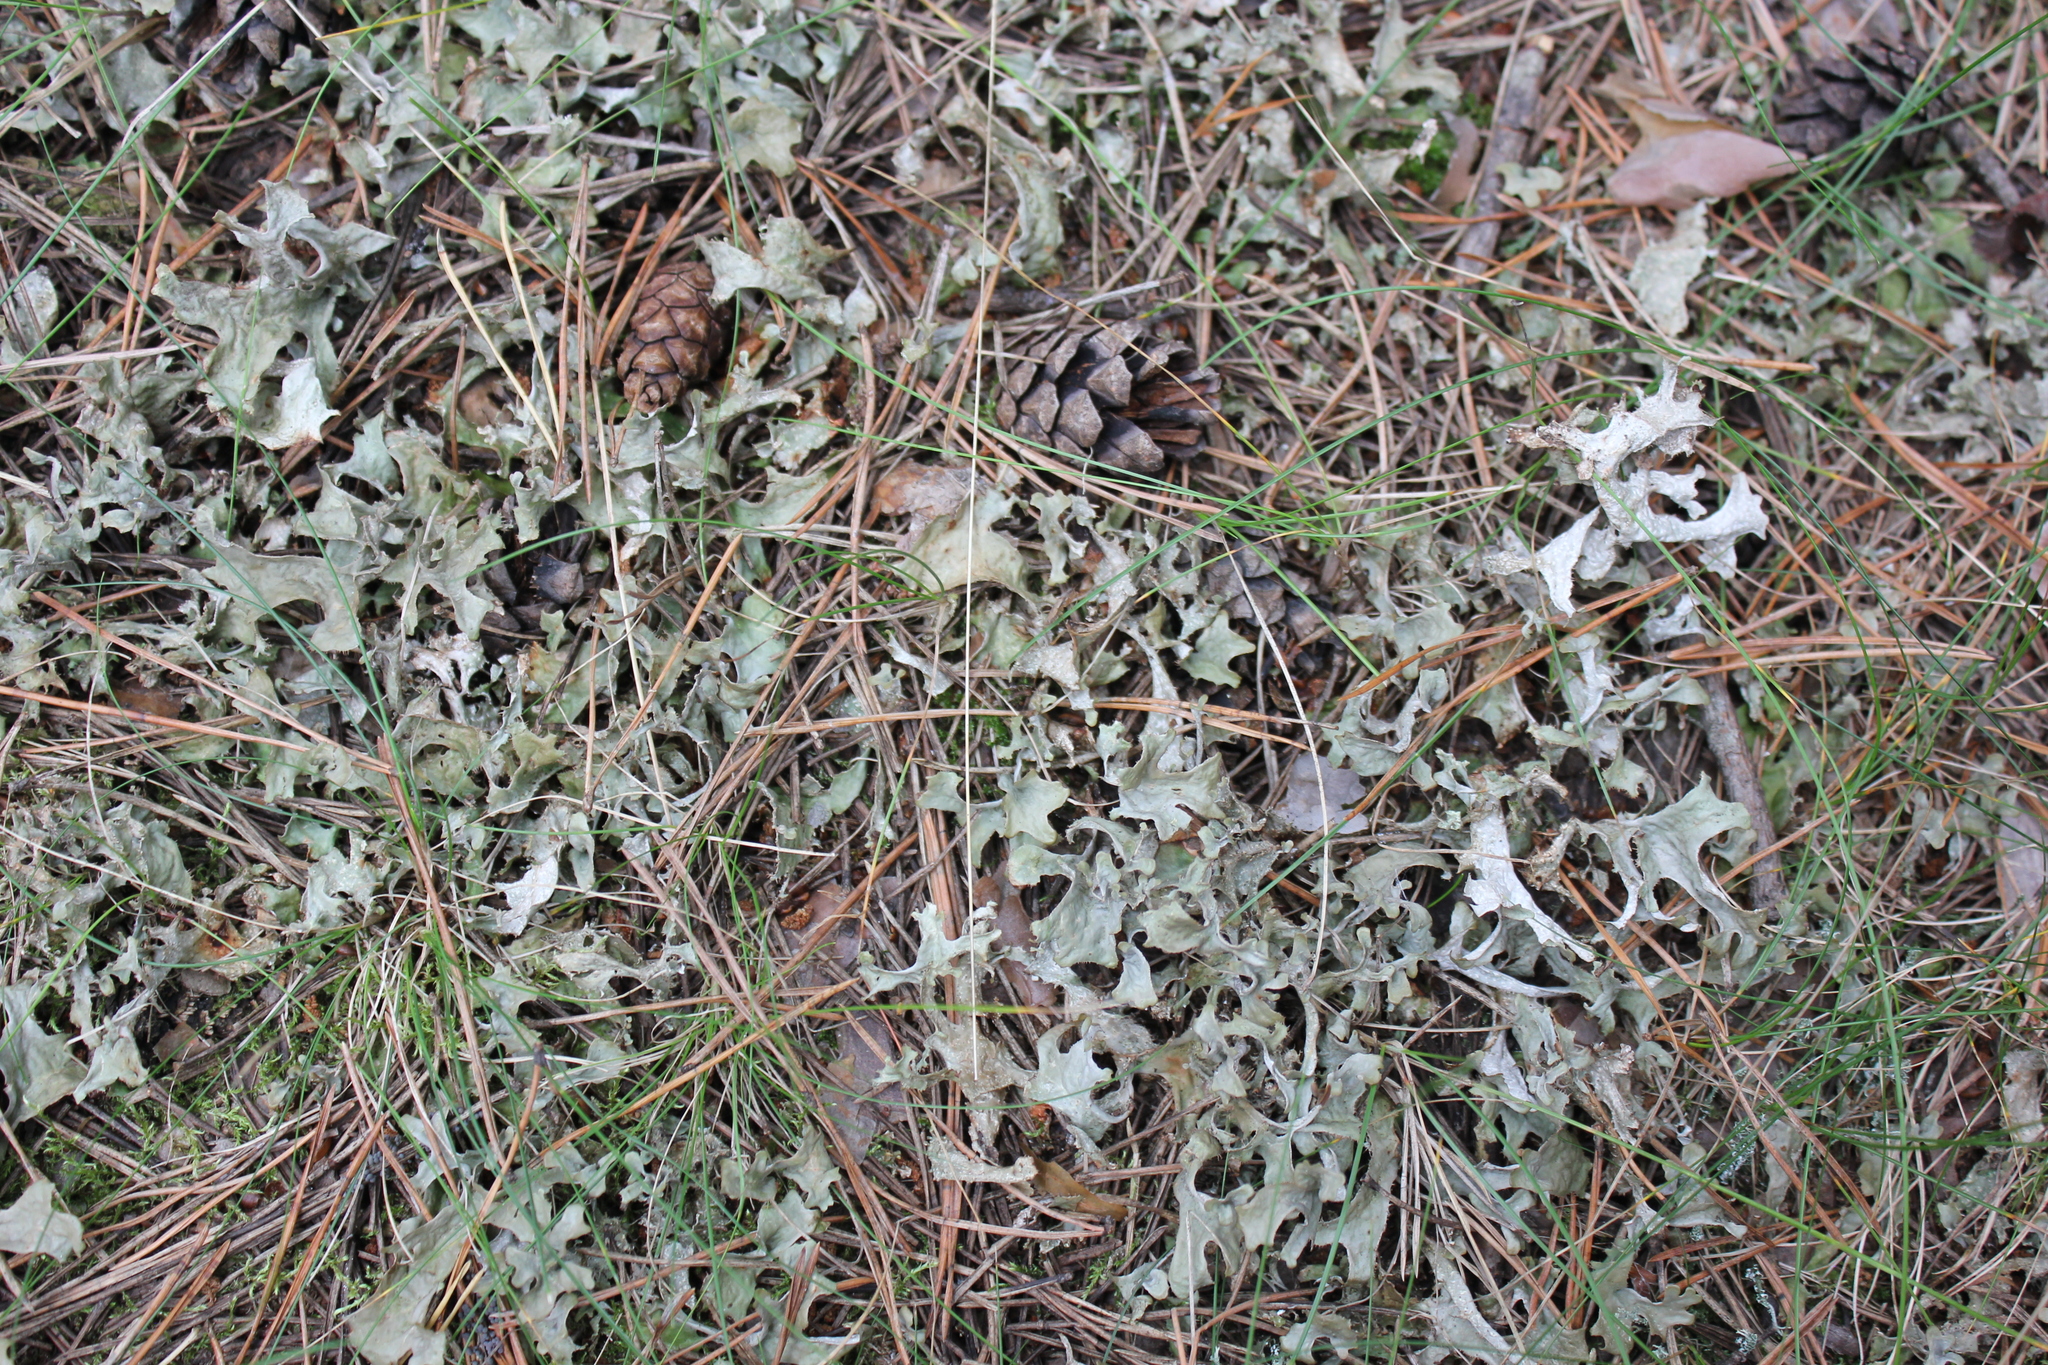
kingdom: Fungi
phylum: Ascomycota
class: Lecanoromycetes
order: Lecanorales
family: Parmeliaceae
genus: Cetraria
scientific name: Cetraria islandica
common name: Iceland lichen
